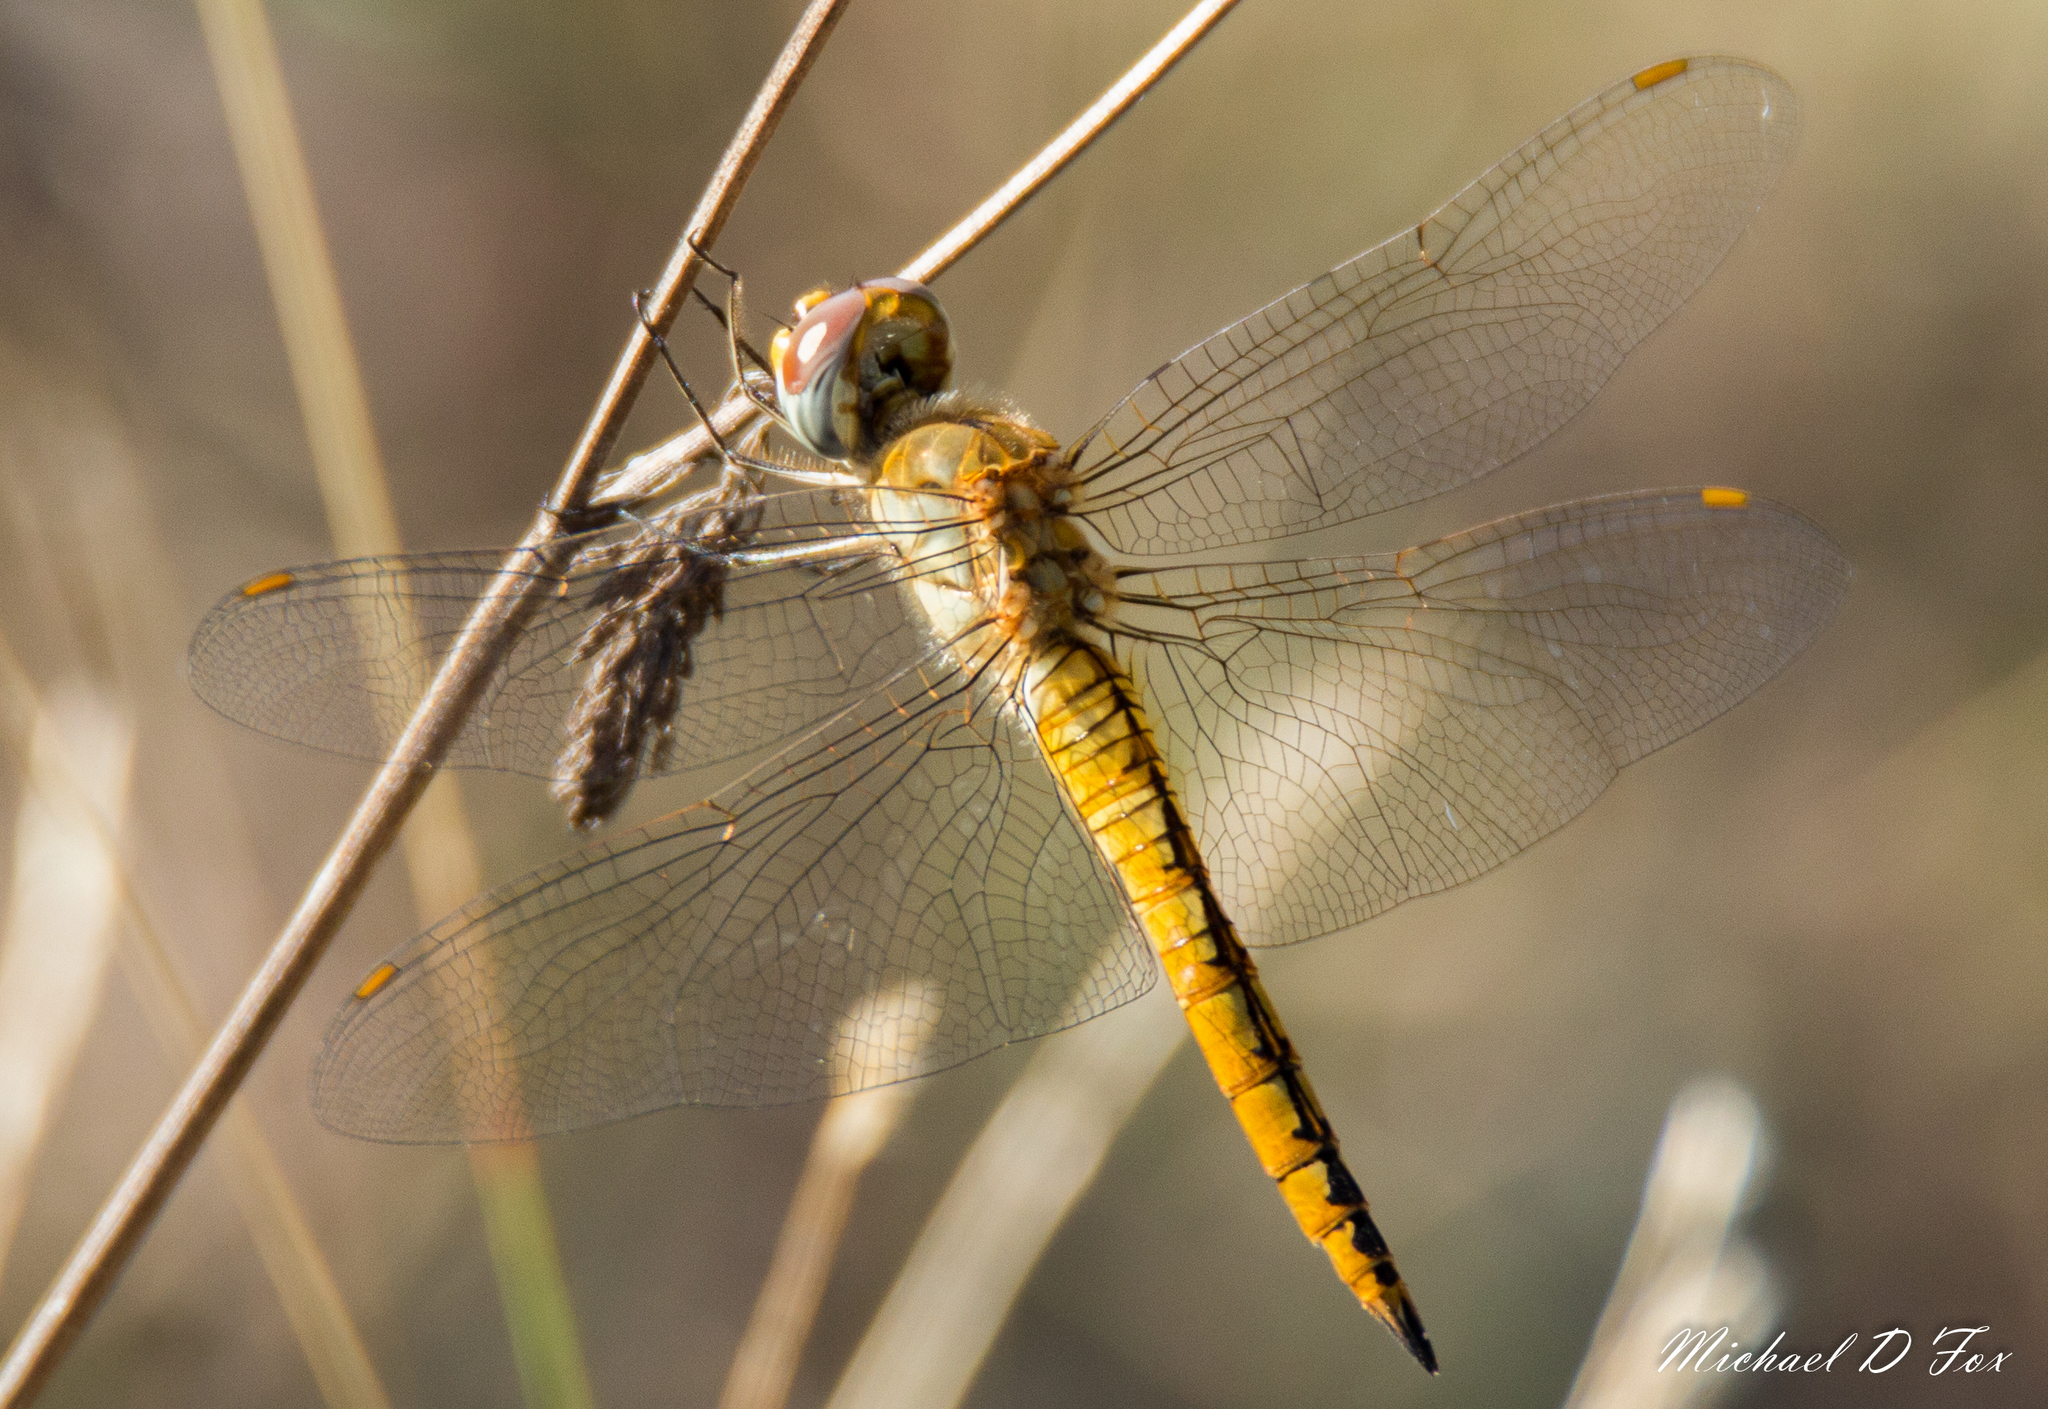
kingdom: Animalia
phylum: Arthropoda
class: Insecta
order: Odonata
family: Libellulidae
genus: Pantala
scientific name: Pantala flavescens
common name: Wandering glider
